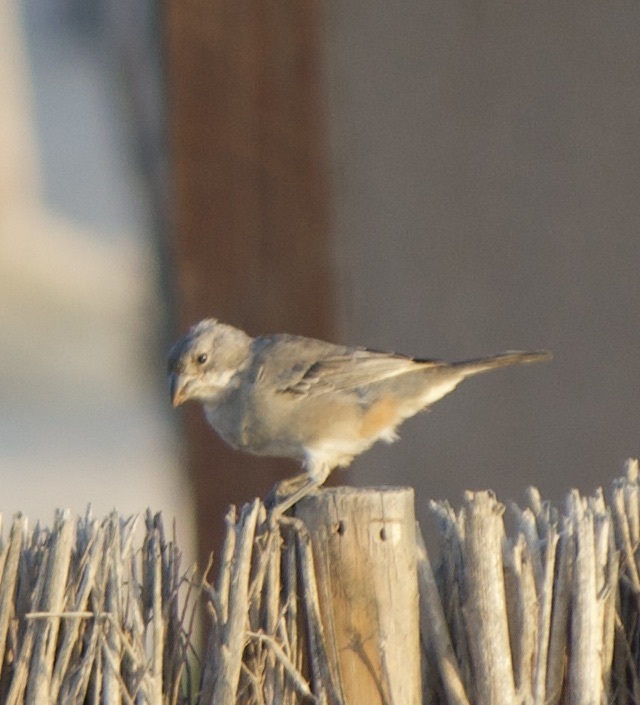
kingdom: Animalia
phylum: Chordata
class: Aves
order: Passeriformes
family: Thraupidae
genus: Diuca
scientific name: Diuca diuca
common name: Common diuca finch
